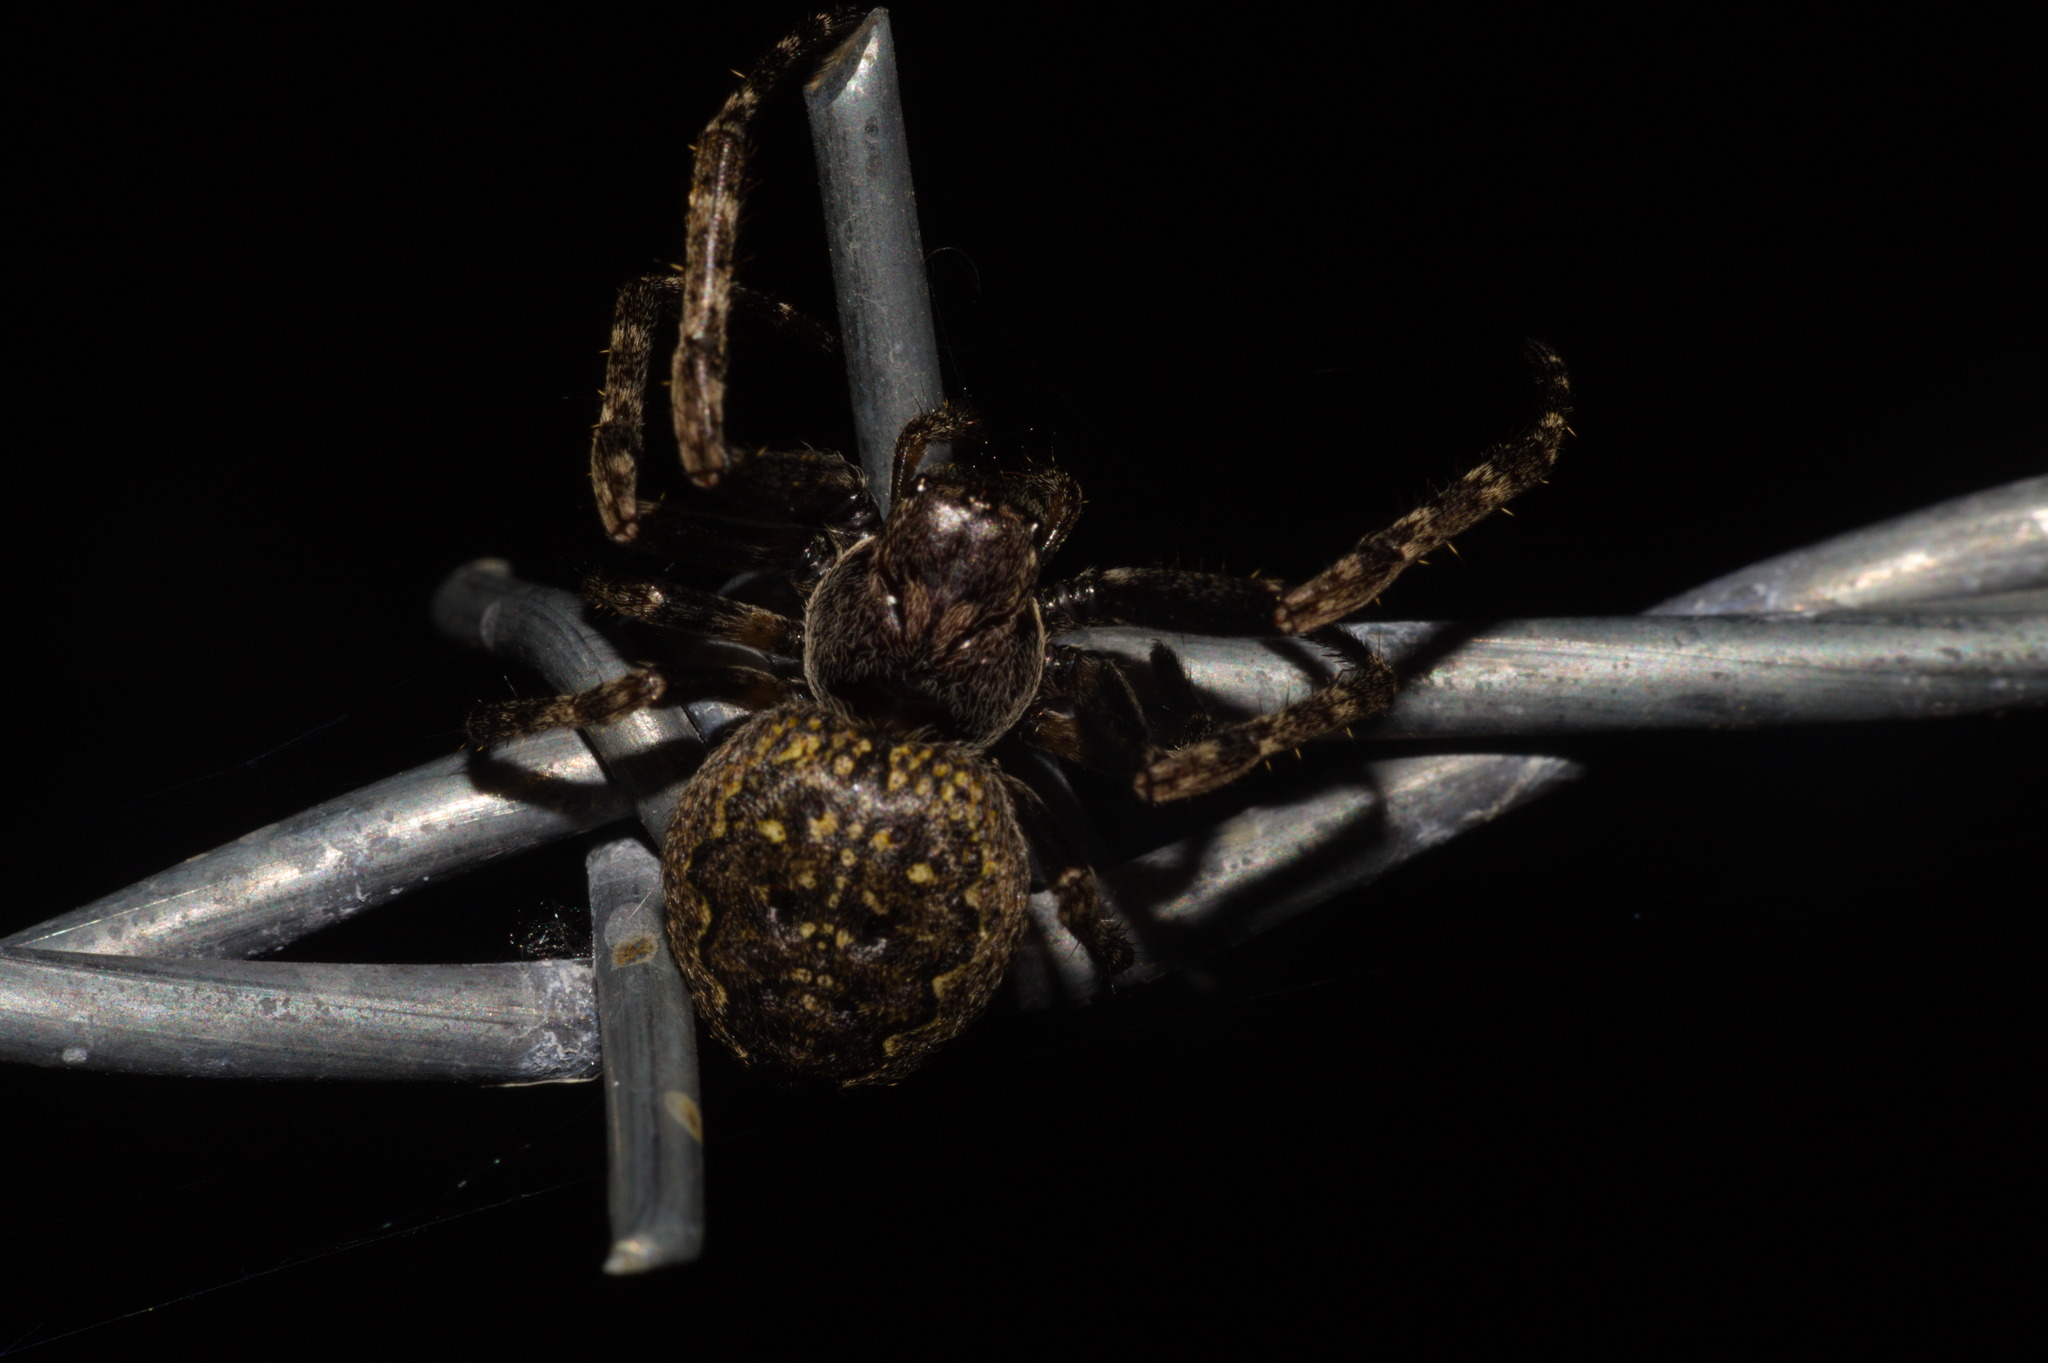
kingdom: Animalia
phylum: Arthropoda
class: Arachnida
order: Araneae
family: Araneidae
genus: Nuctenea
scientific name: Nuctenea umbratica
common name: Toad spider
